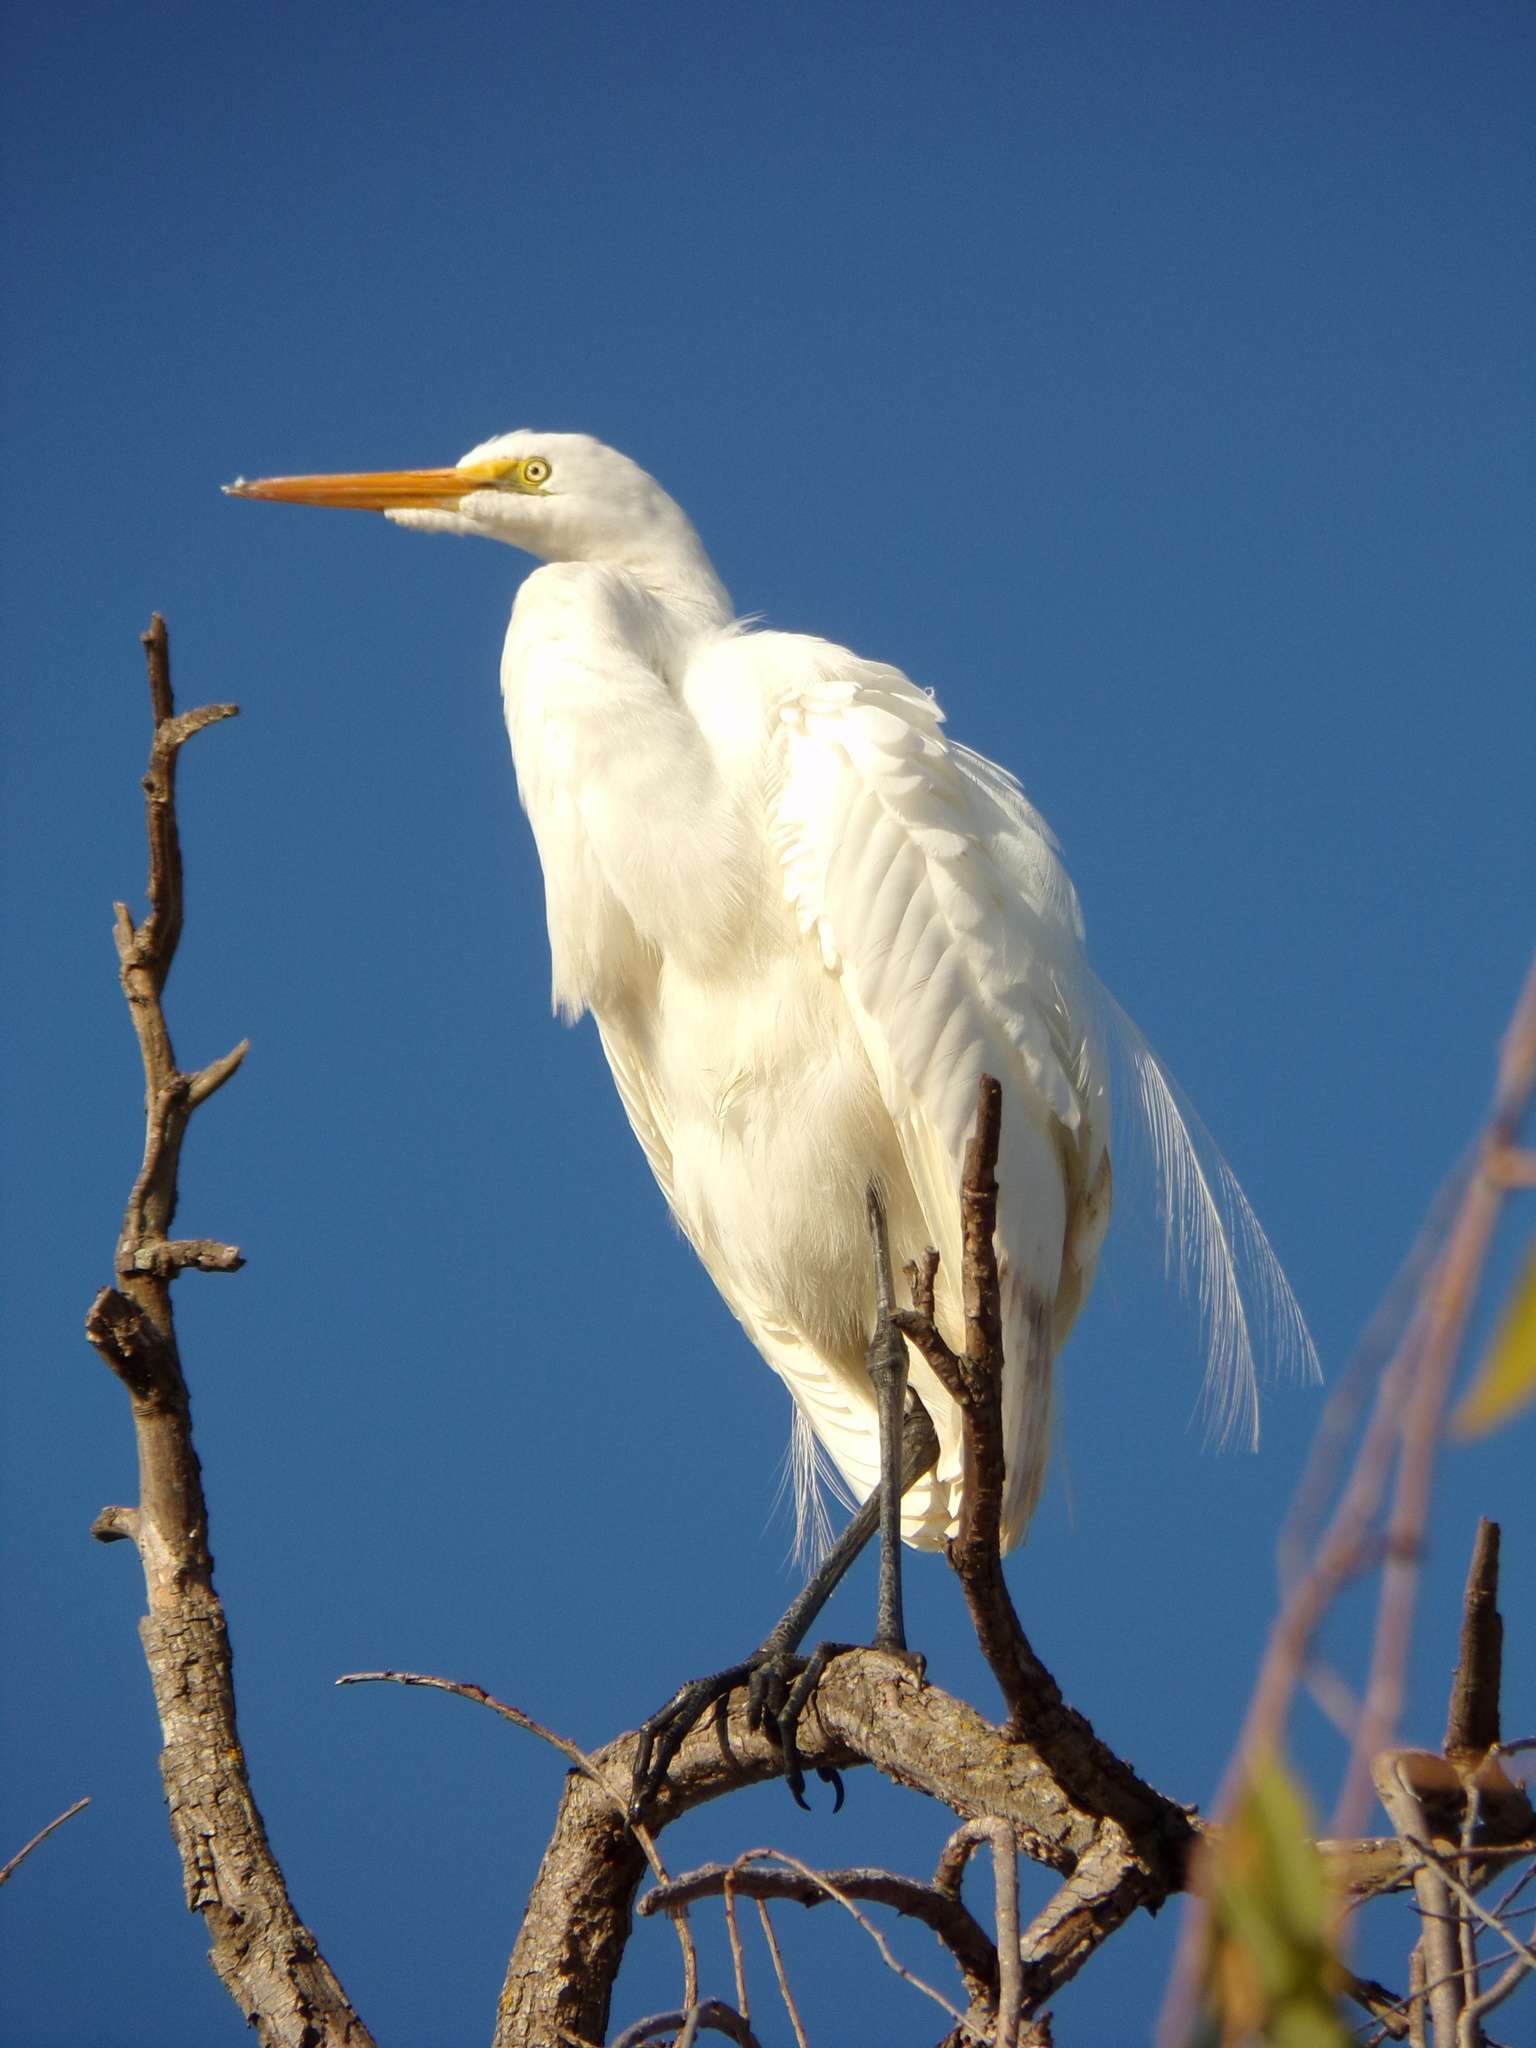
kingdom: Animalia
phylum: Chordata
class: Aves
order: Pelecaniformes
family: Ardeidae
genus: Ardea
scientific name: Ardea alba
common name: Great egret
